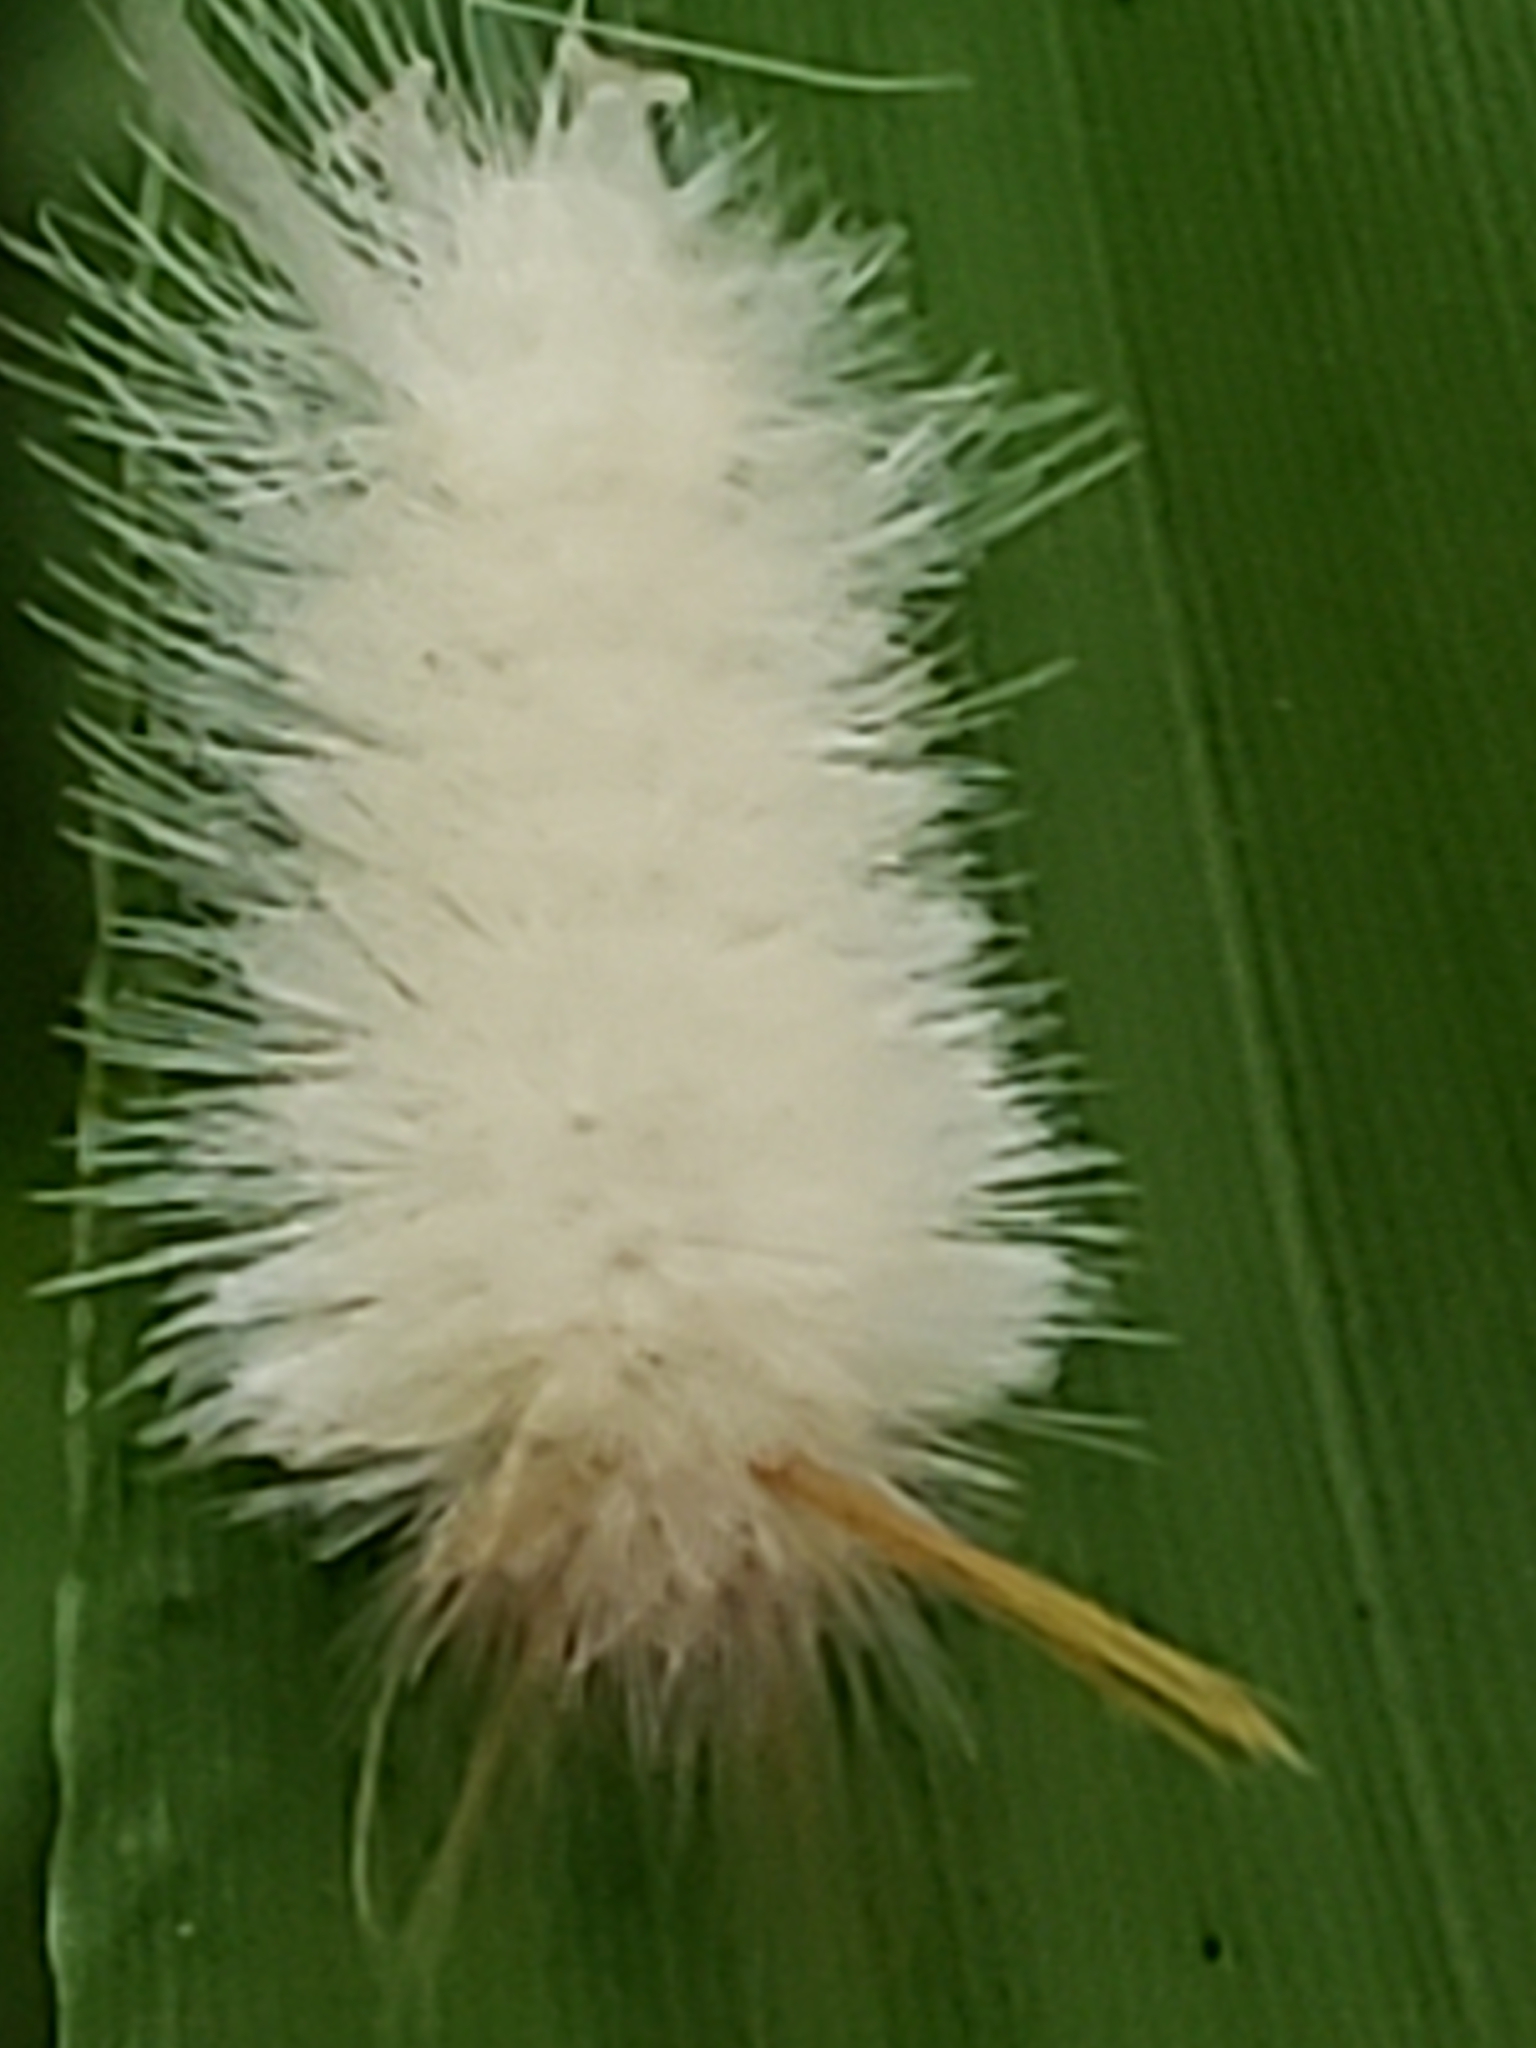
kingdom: Animalia
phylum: Arthropoda
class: Insecta
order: Lepidoptera
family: Erebidae
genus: Halysidota
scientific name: Halysidota harrisii
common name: Sycamore tussock moth
